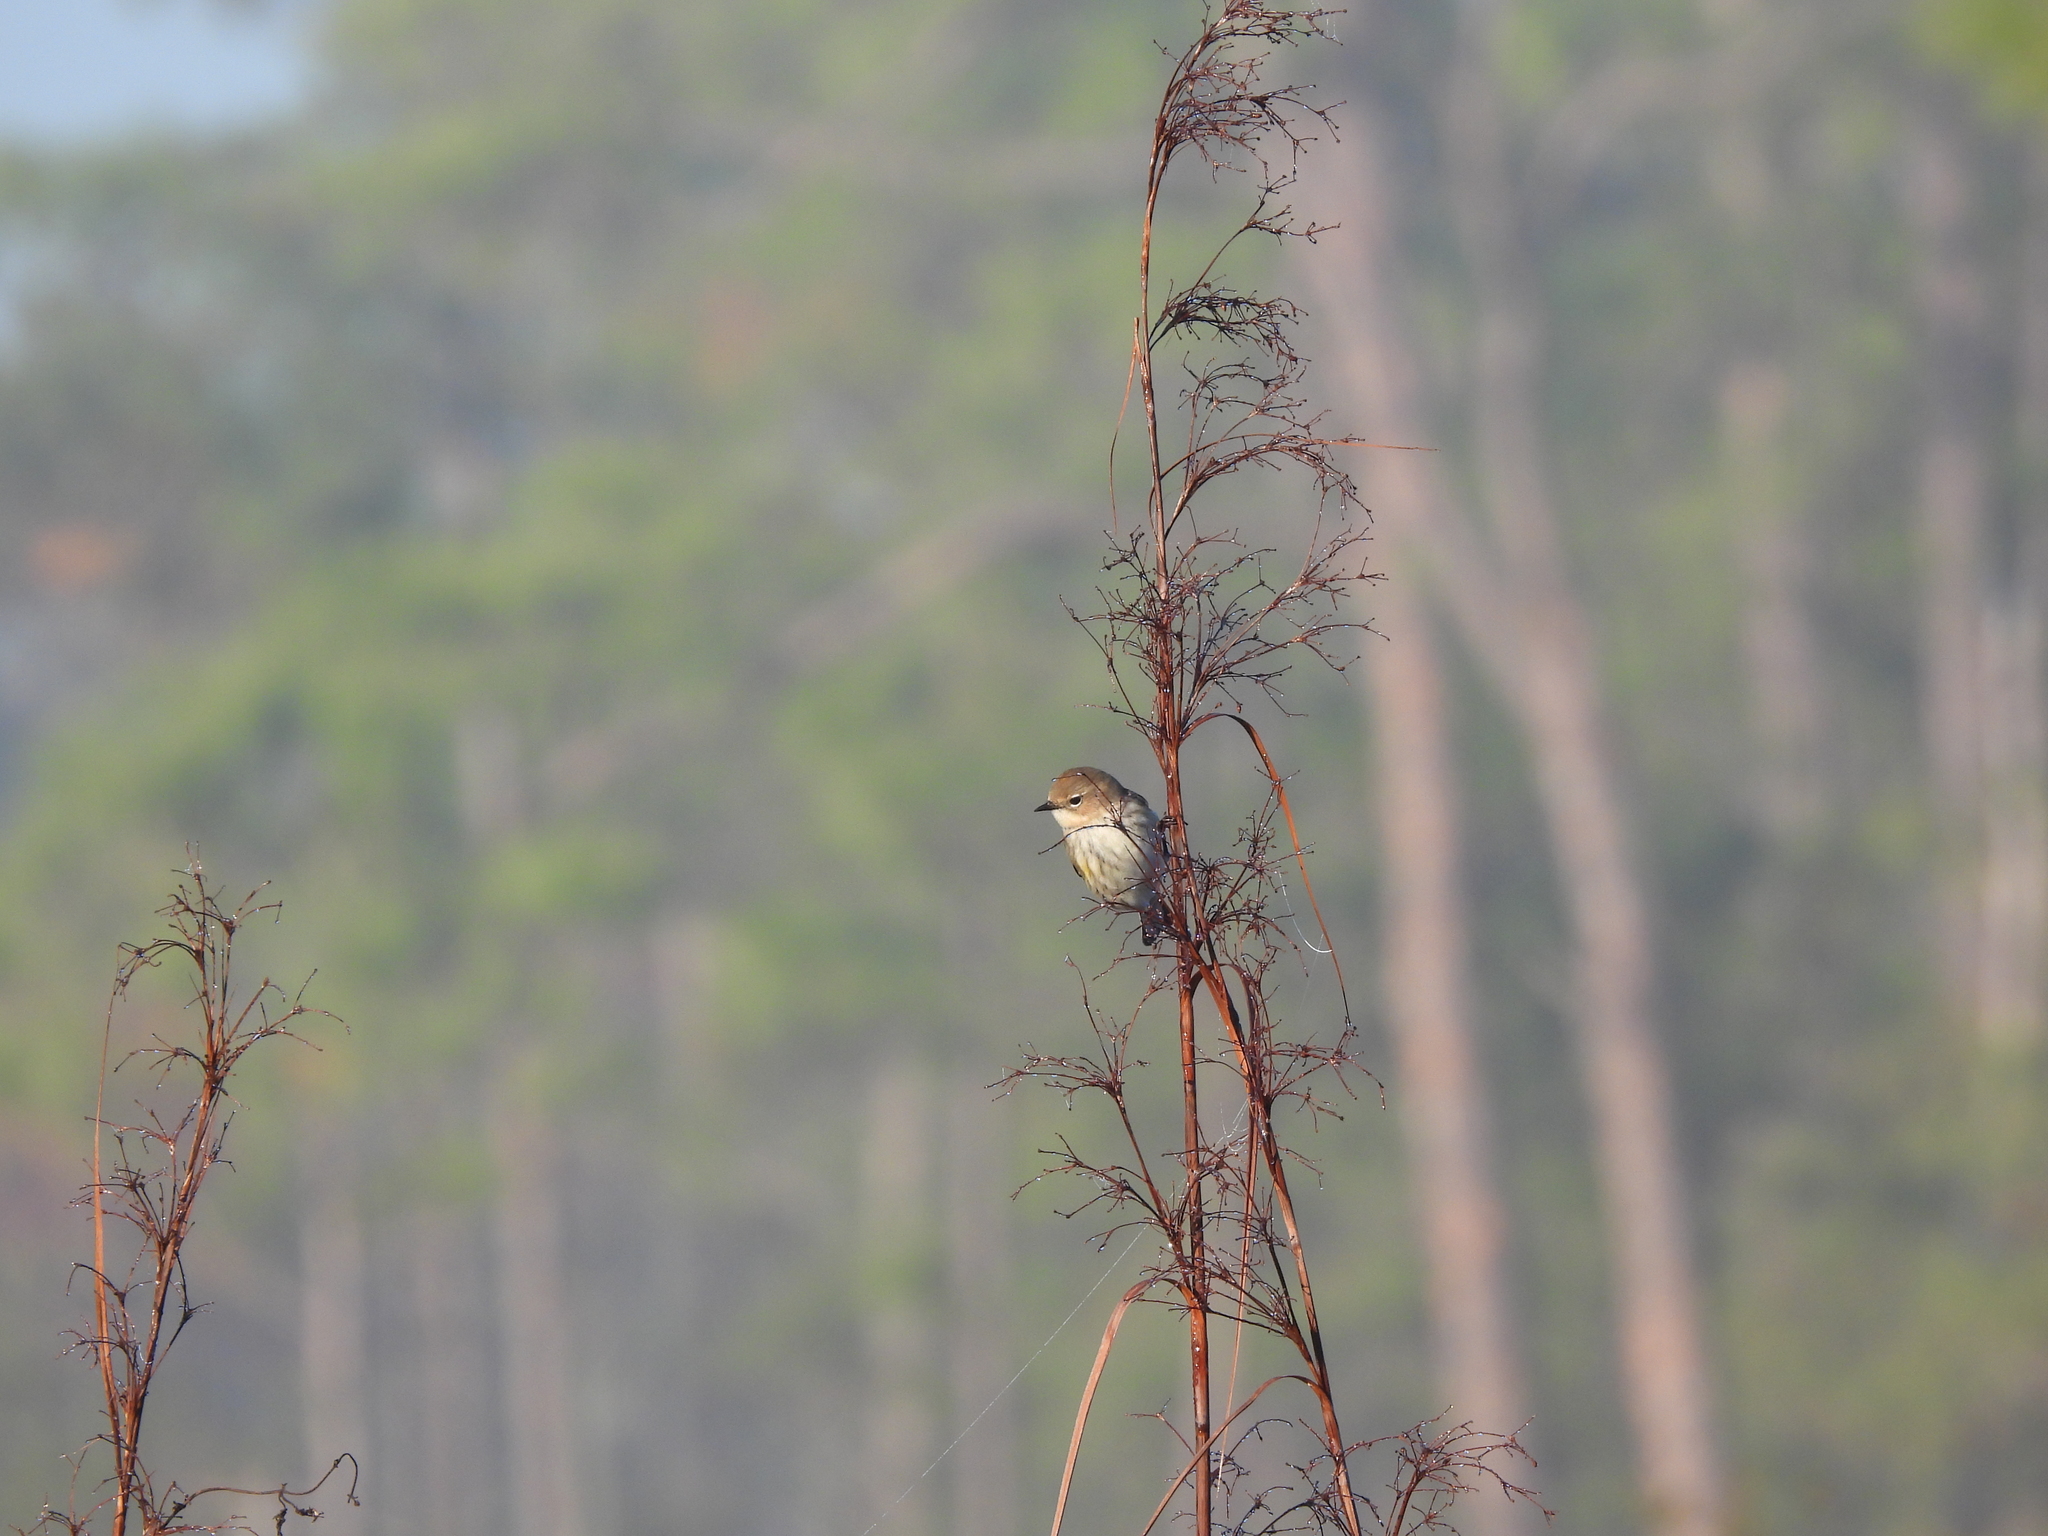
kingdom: Animalia
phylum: Chordata
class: Aves
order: Passeriformes
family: Parulidae
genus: Setophaga
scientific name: Setophaga coronata
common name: Myrtle warbler
